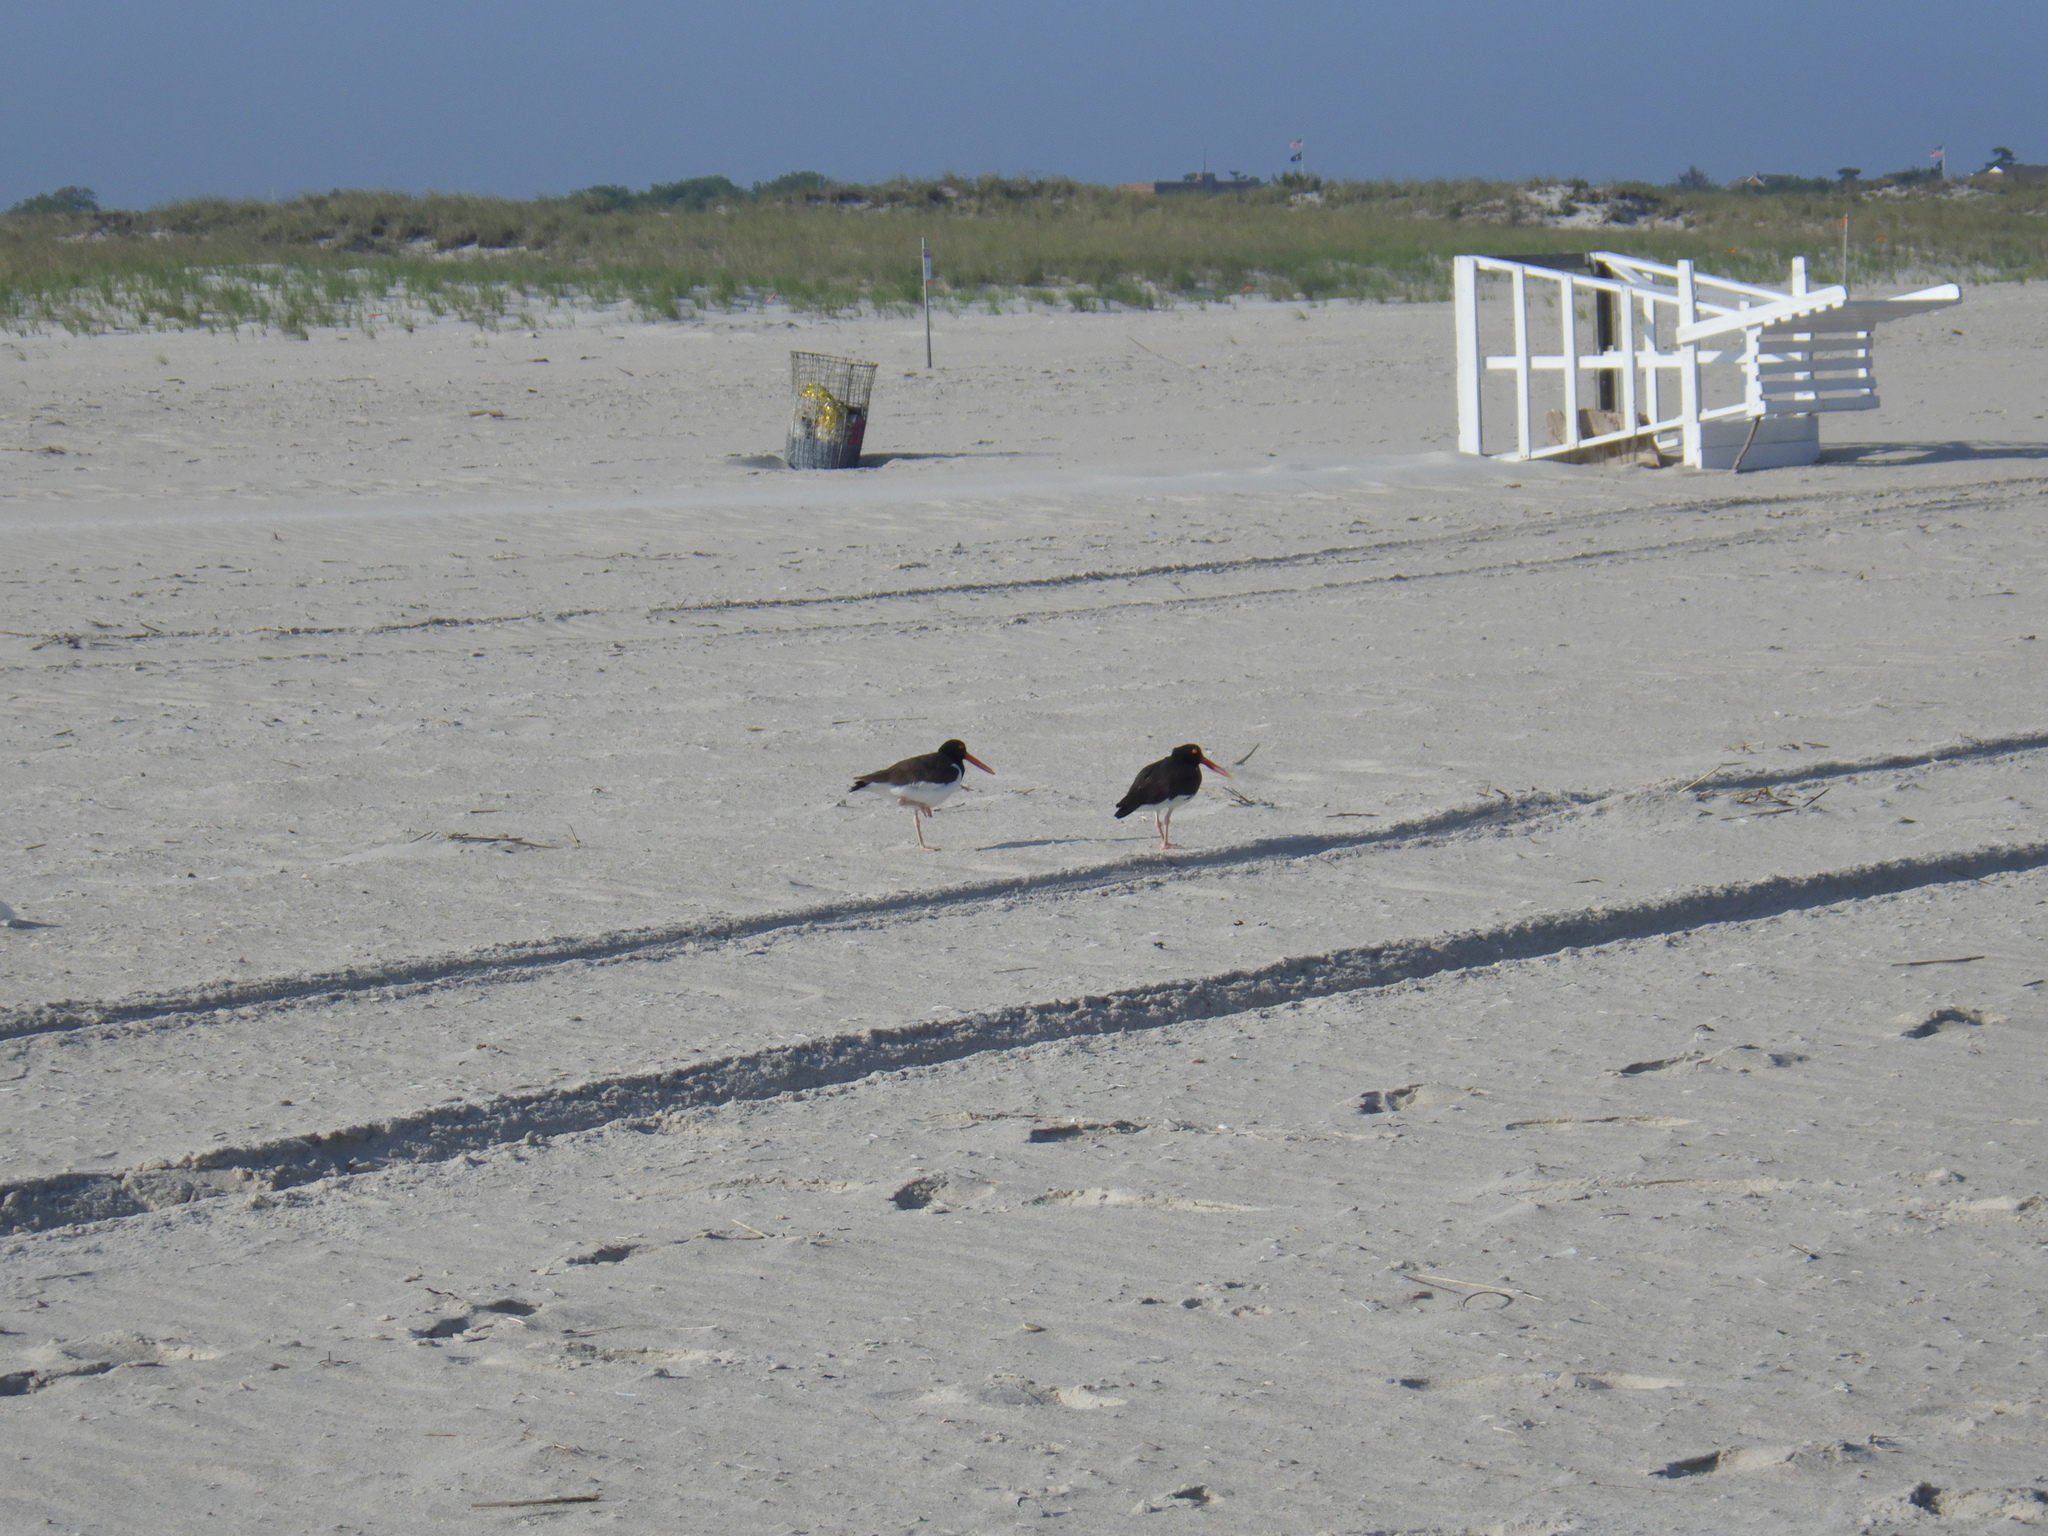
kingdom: Animalia
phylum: Chordata
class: Aves
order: Charadriiformes
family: Haematopodidae
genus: Haematopus
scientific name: Haematopus palliatus
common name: American oystercatcher
